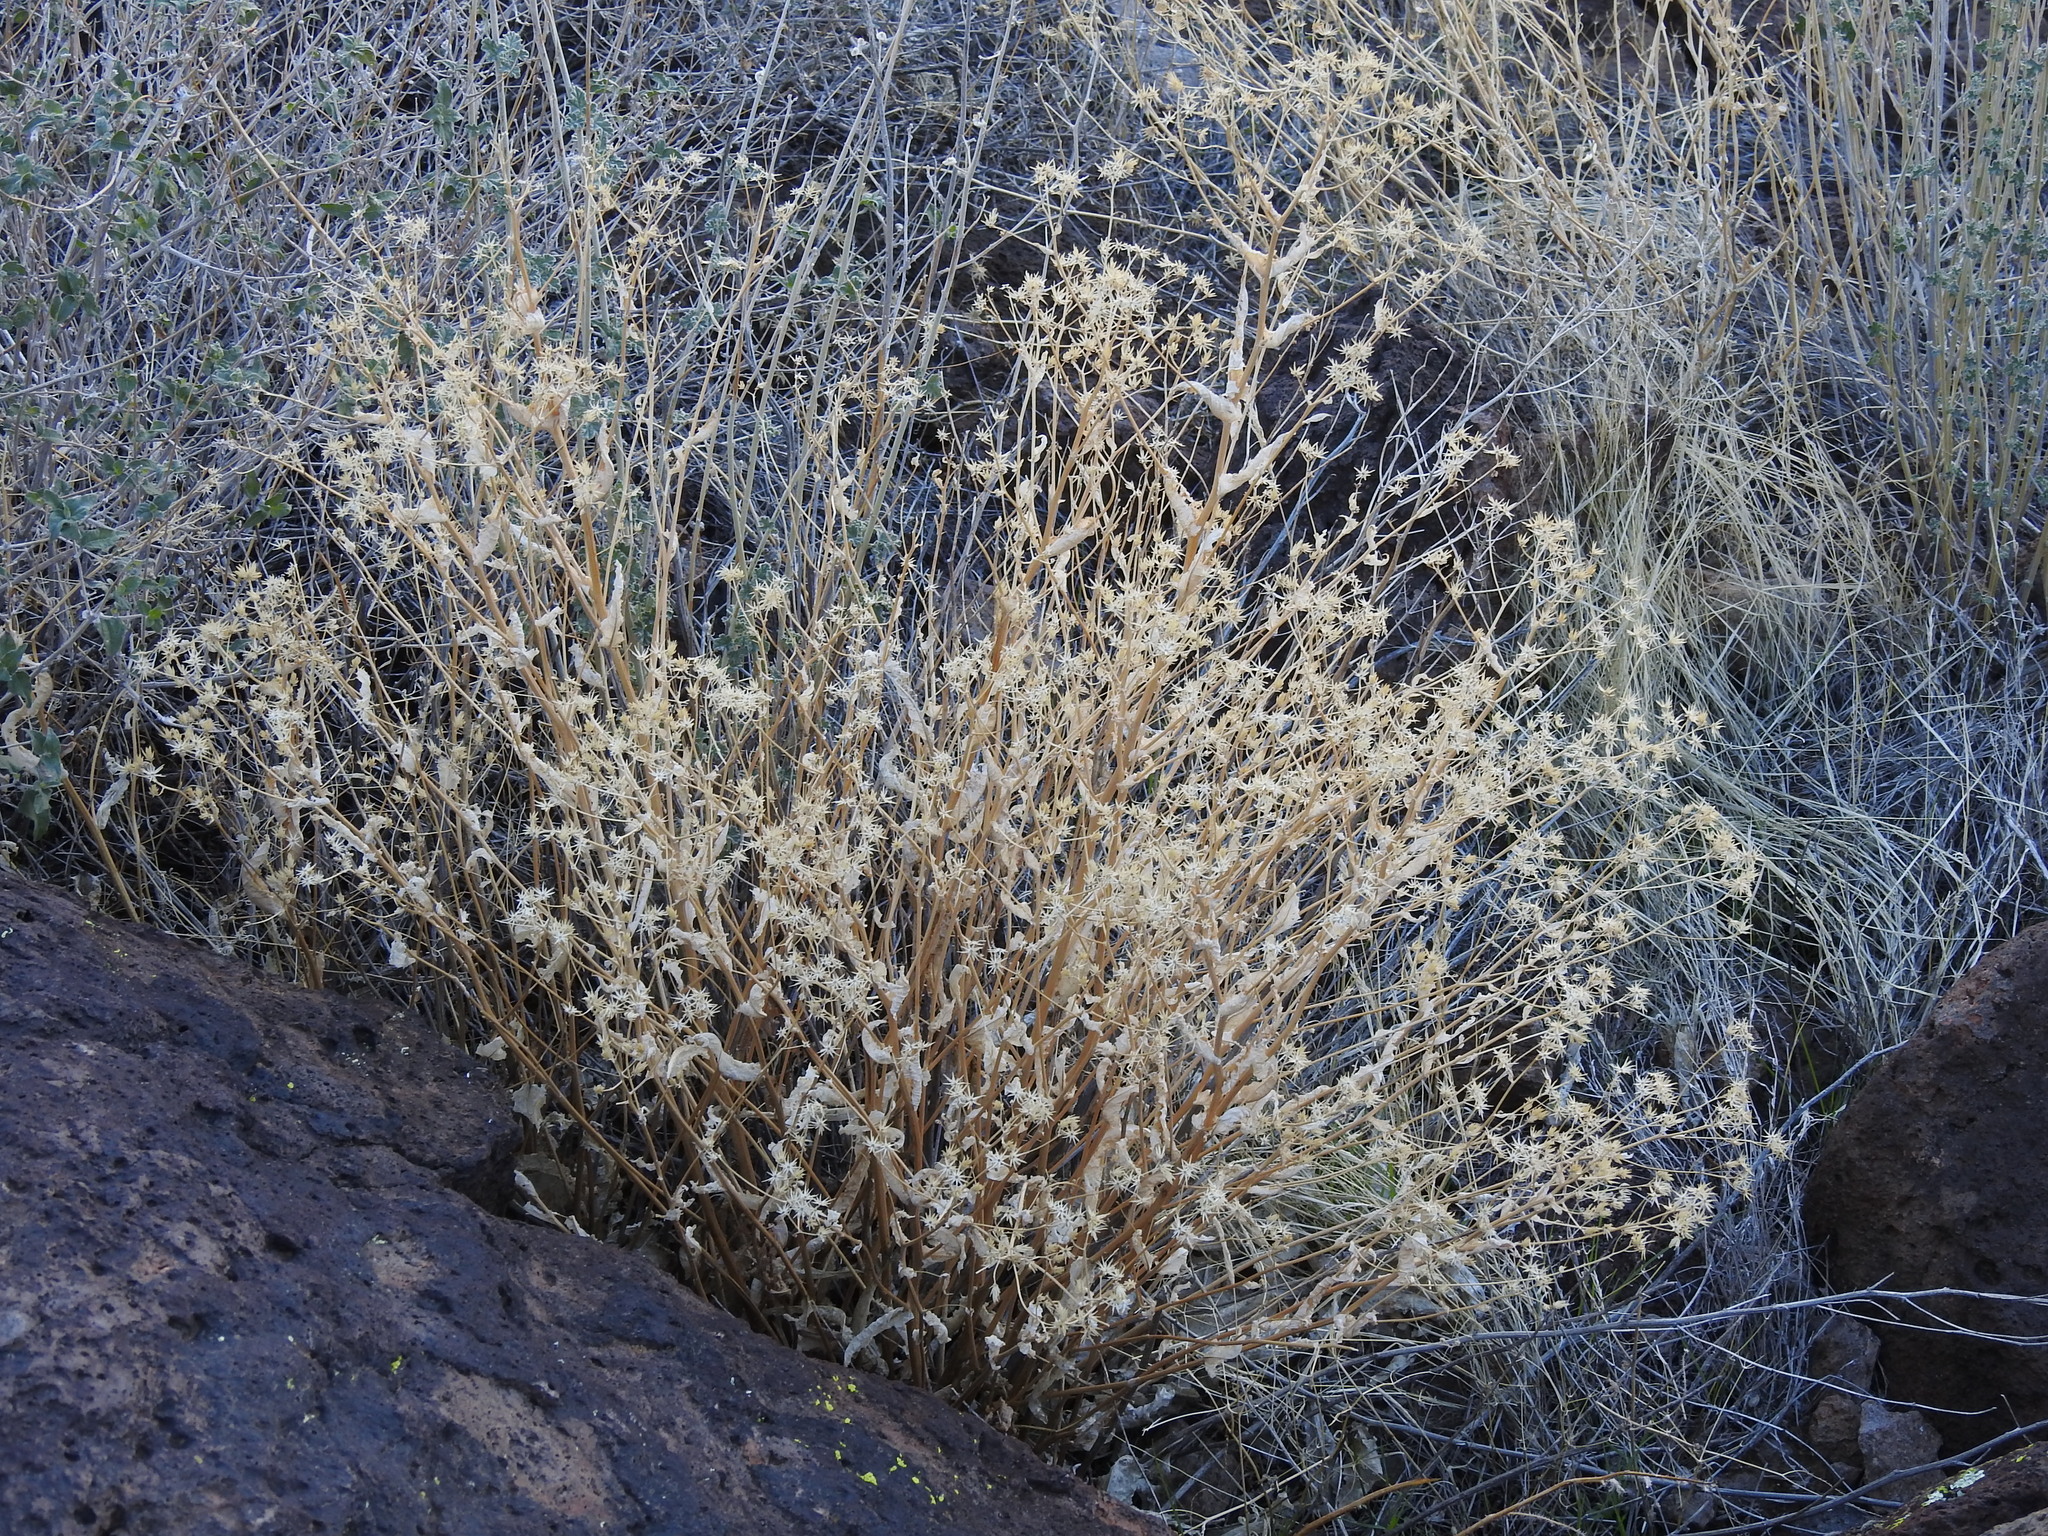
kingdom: Plantae
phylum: Tracheophyta
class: Magnoliopsida
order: Asterales
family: Asteraceae
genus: Acourtia
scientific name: Acourtia wrightii
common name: Brownfoot
